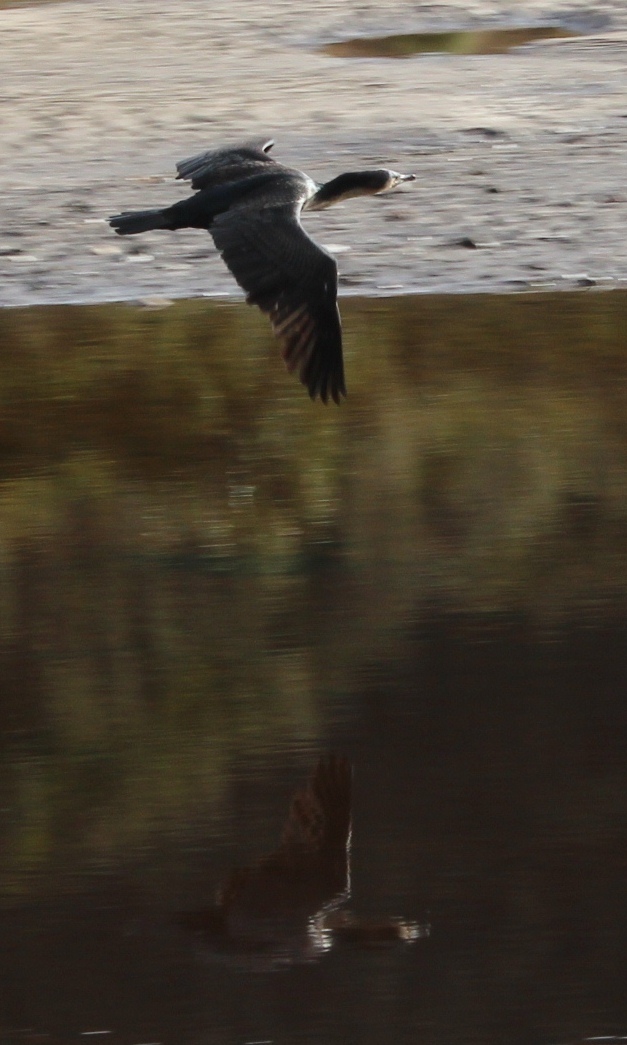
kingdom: Animalia
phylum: Chordata
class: Aves
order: Suliformes
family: Phalacrocoracidae
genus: Phalacrocorax
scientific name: Phalacrocorax carbo
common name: Great cormorant
